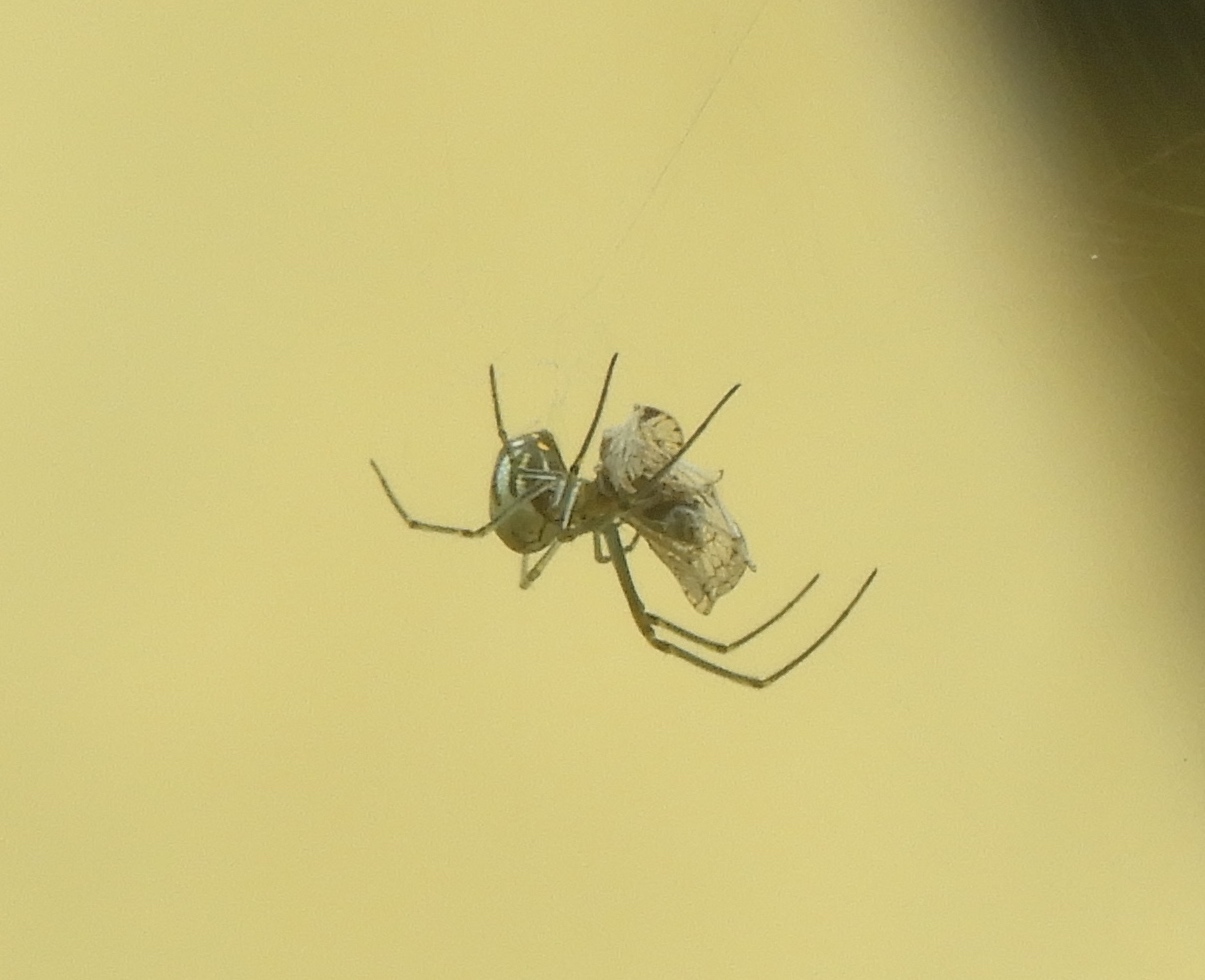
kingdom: Animalia
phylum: Arthropoda
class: Arachnida
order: Araneae
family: Tetragnathidae
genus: Leucauge
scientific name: Leucauge argyra
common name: Longjawed orb weavers
